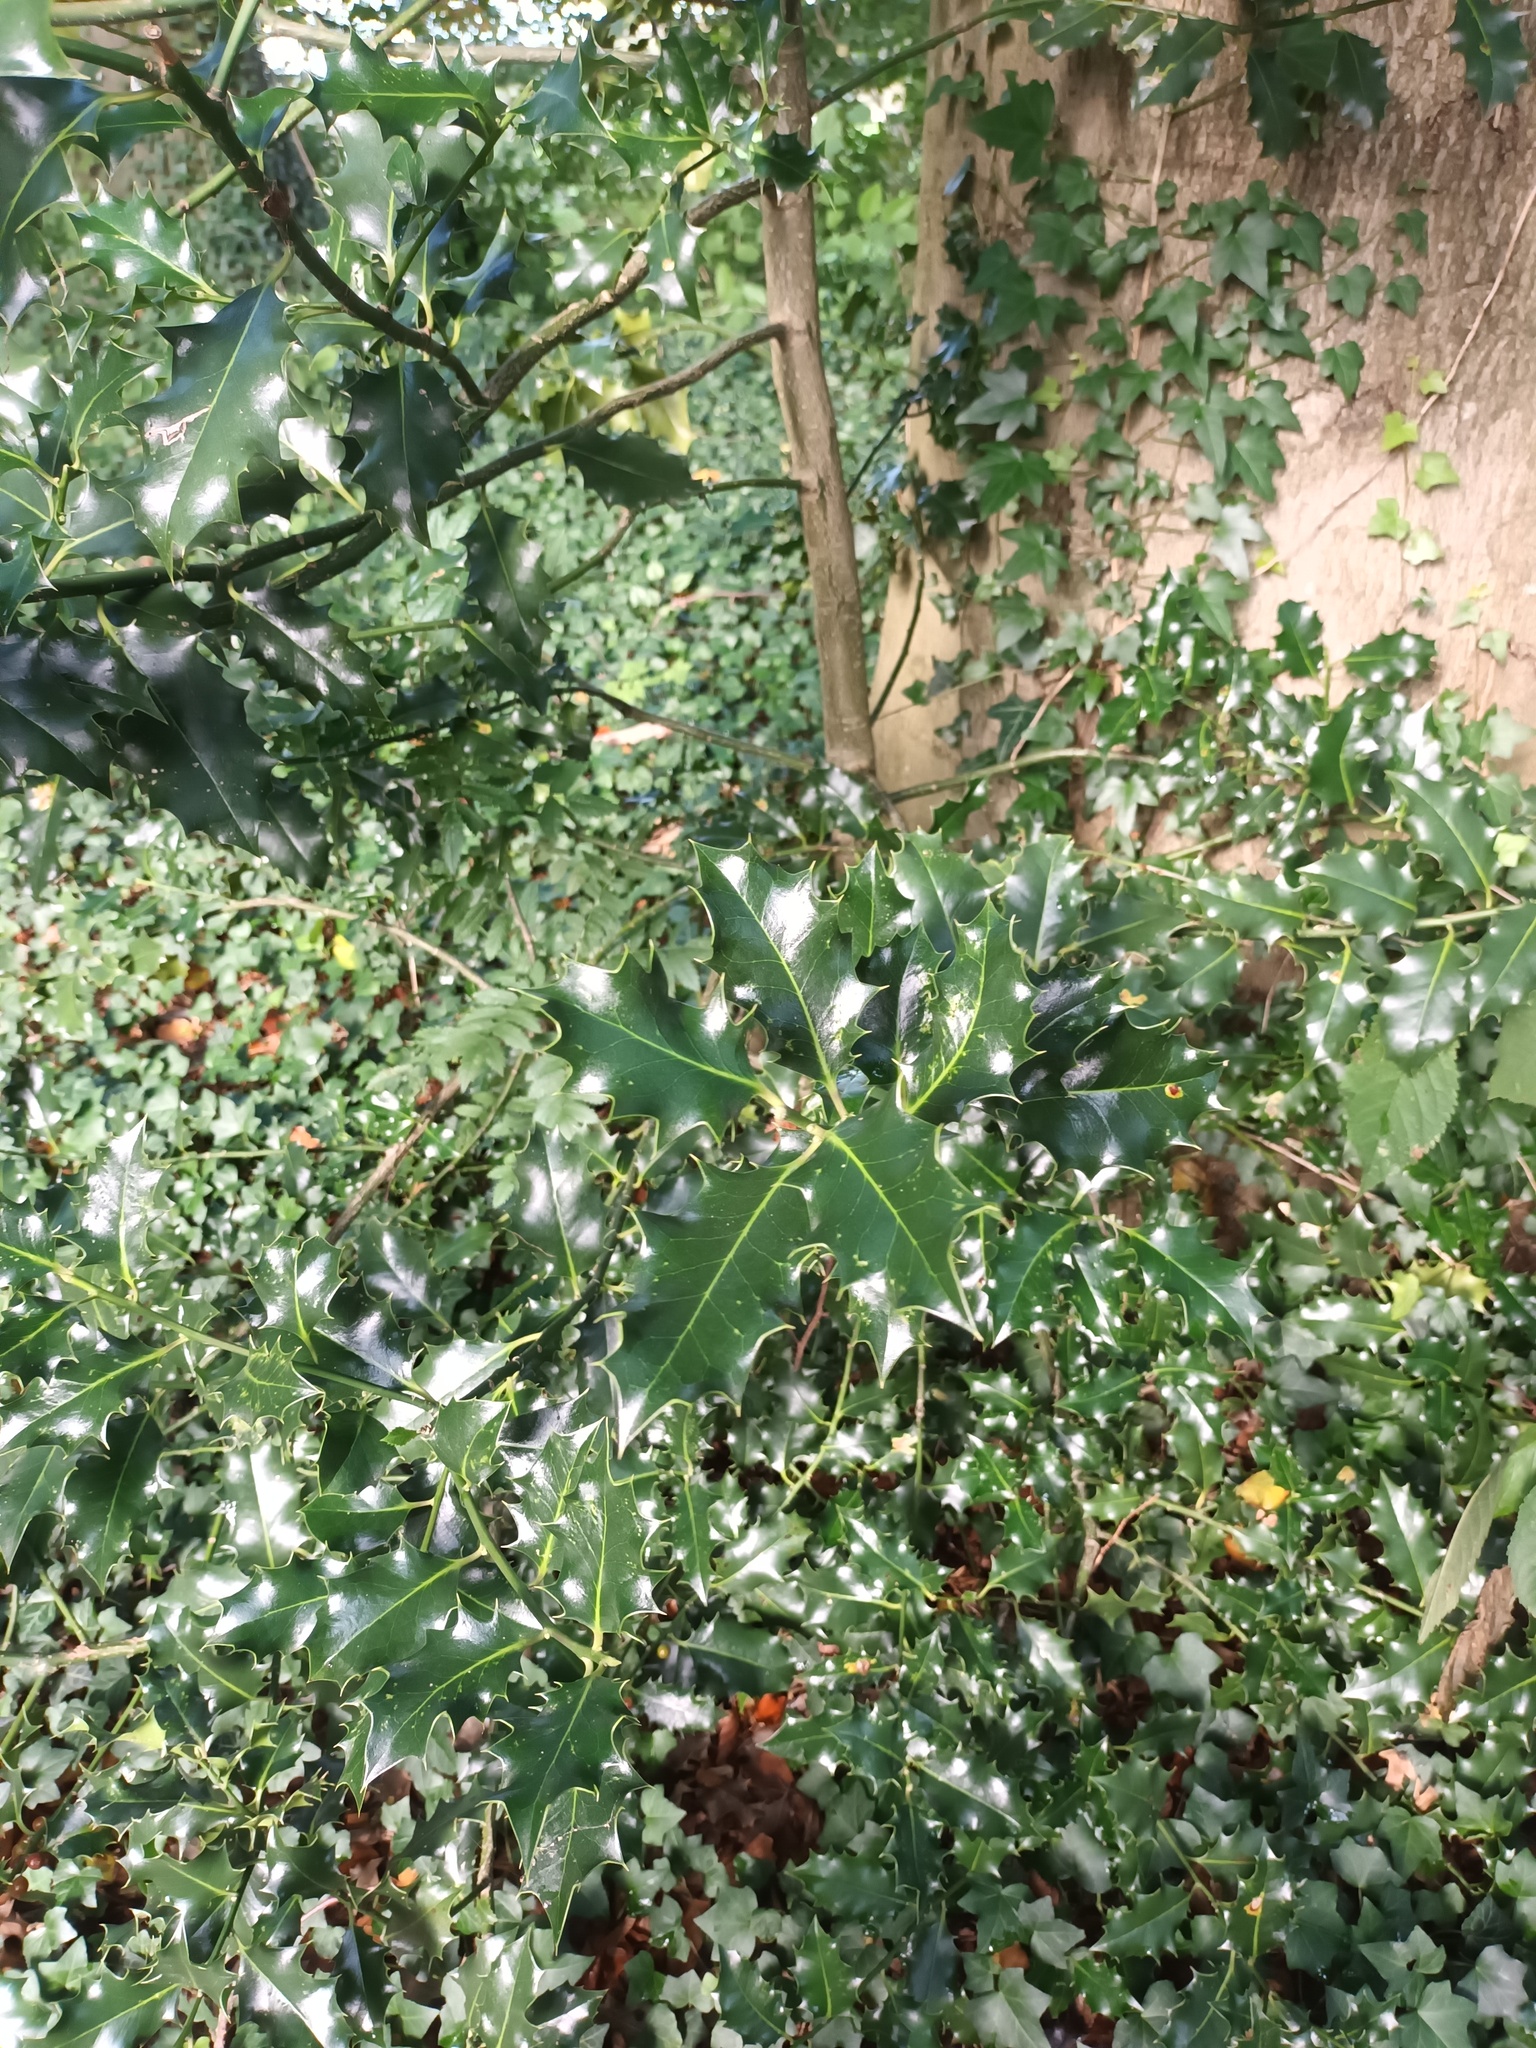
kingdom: Plantae
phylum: Tracheophyta
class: Magnoliopsida
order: Aquifoliales
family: Aquifoliaceae
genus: Ilex
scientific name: Ilex aquifolium
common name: English holly
